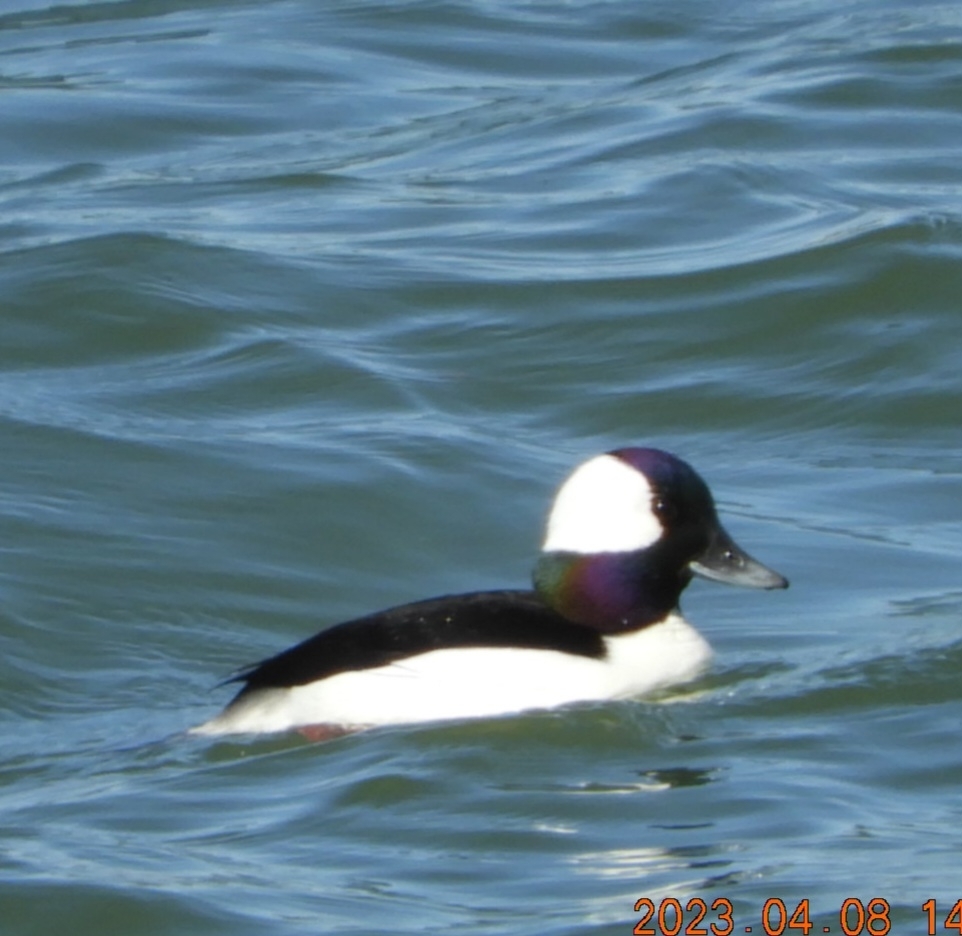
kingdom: Animalia
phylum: Chordata
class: Aves
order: Anseriformes
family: Anatidae
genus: Bucephala
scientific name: Bucephala albeola
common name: Bufflehead
